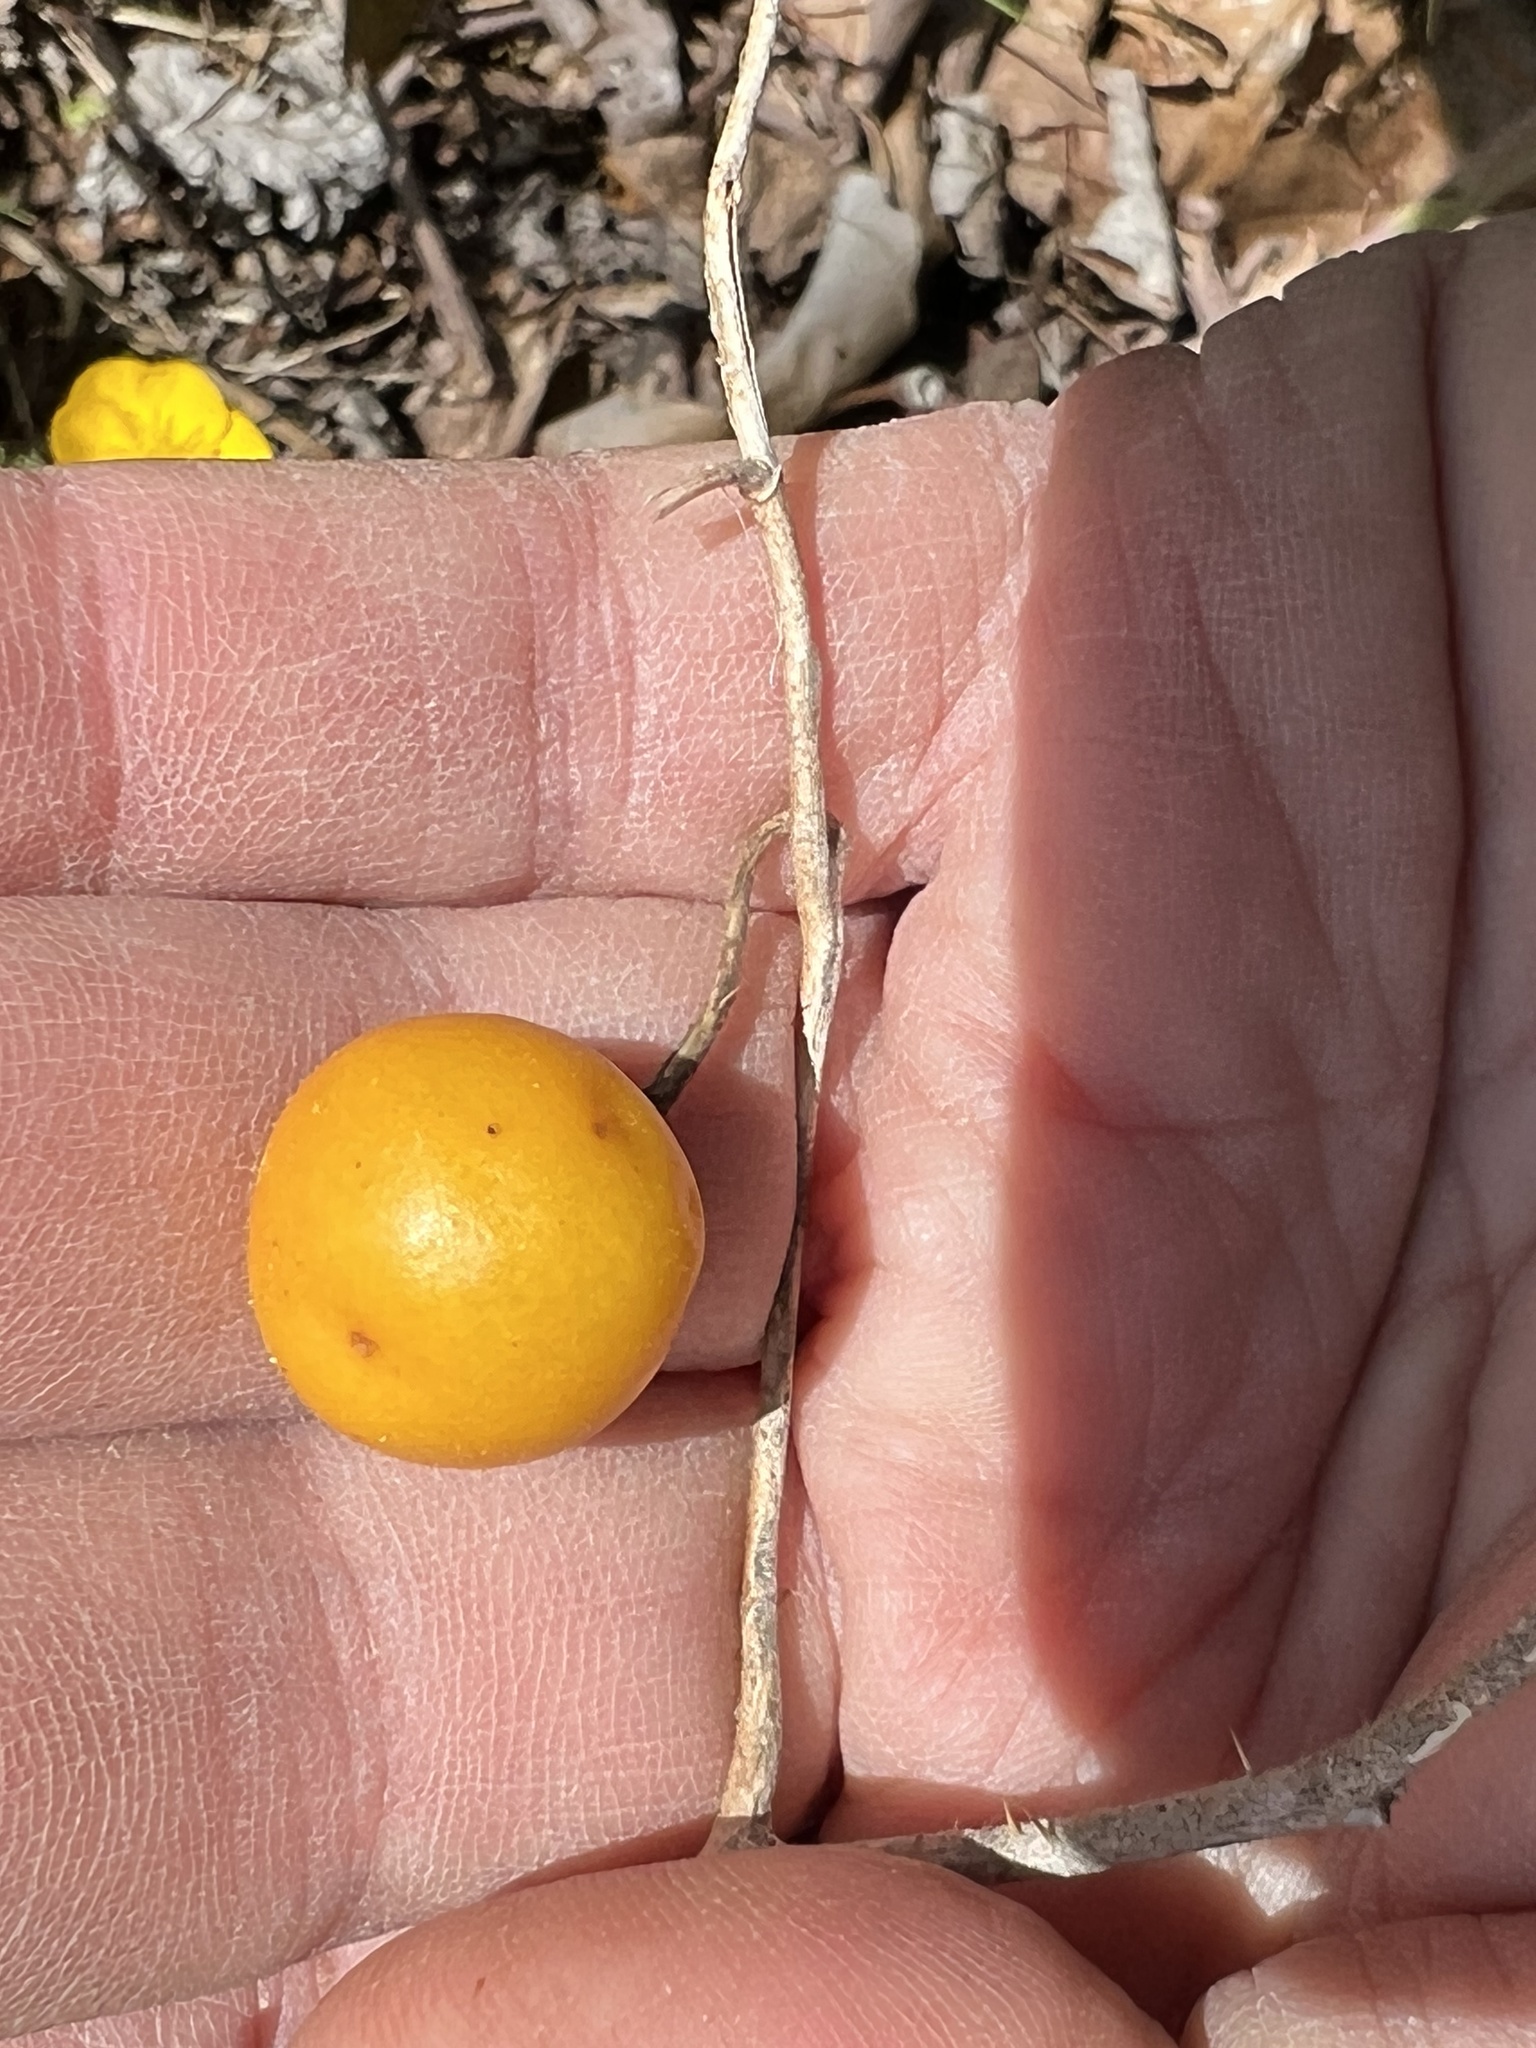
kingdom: Plantae
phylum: Tracheophyta
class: Magnoliopsida
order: Solanales
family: Solanaceae
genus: Solanum
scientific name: Solanum carolinense
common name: Horse-nettle
